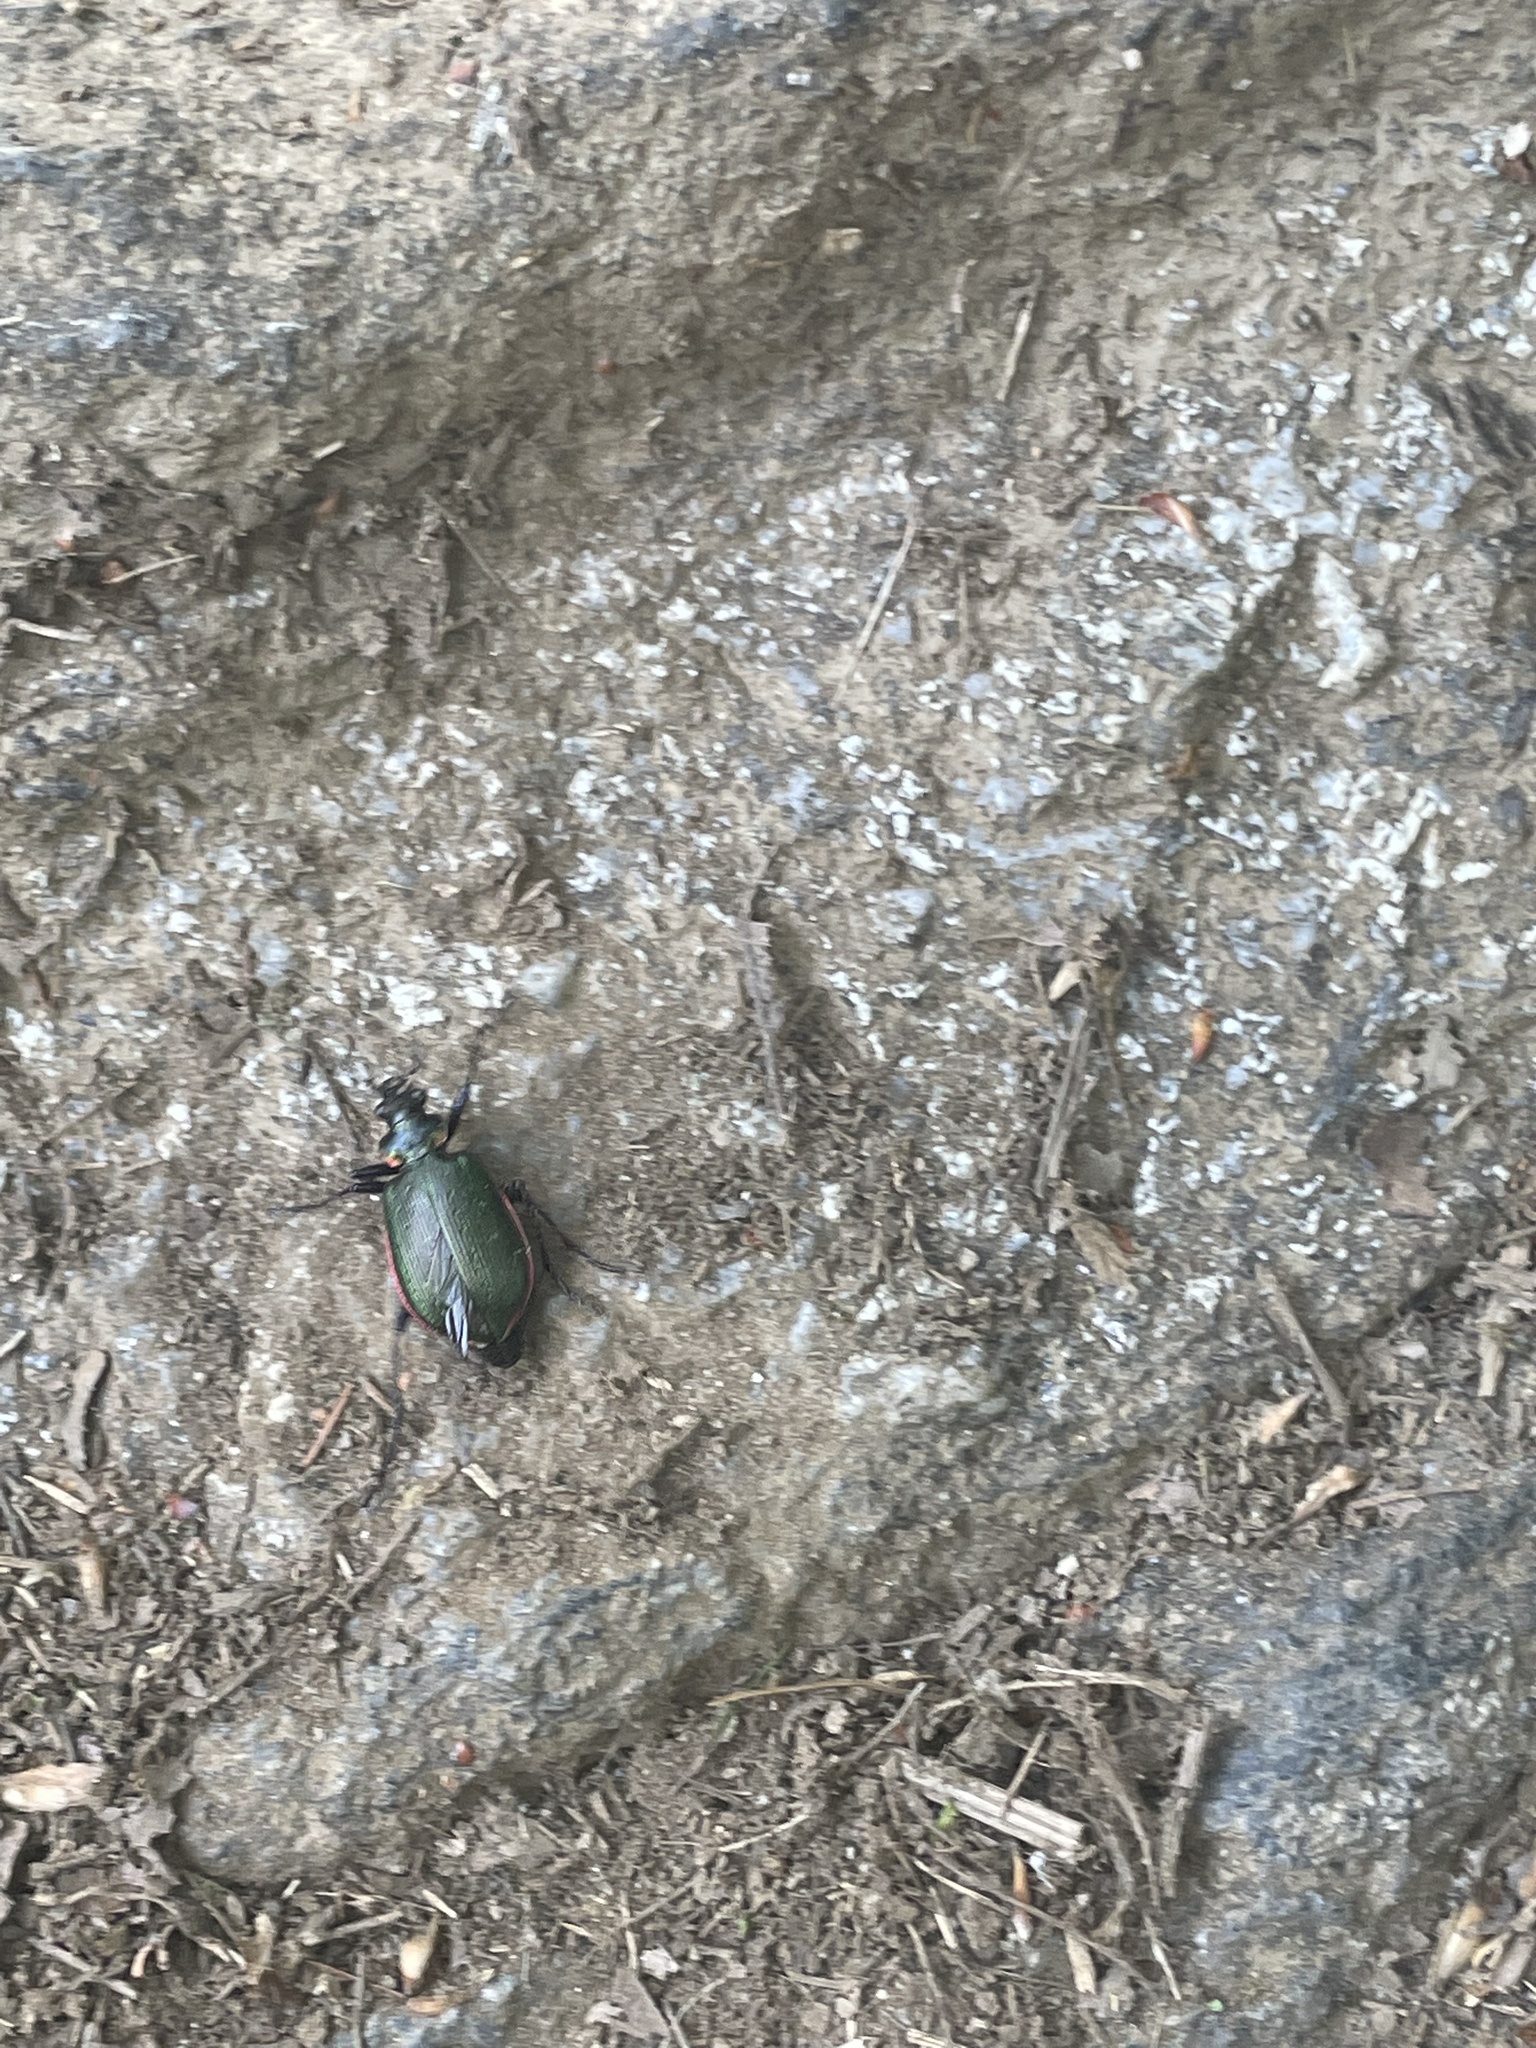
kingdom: Animalia
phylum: Arthropoda
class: Insecta
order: Coleoptera
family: Carabidae
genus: Calosoma
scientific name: Calosoma wilcoxi
